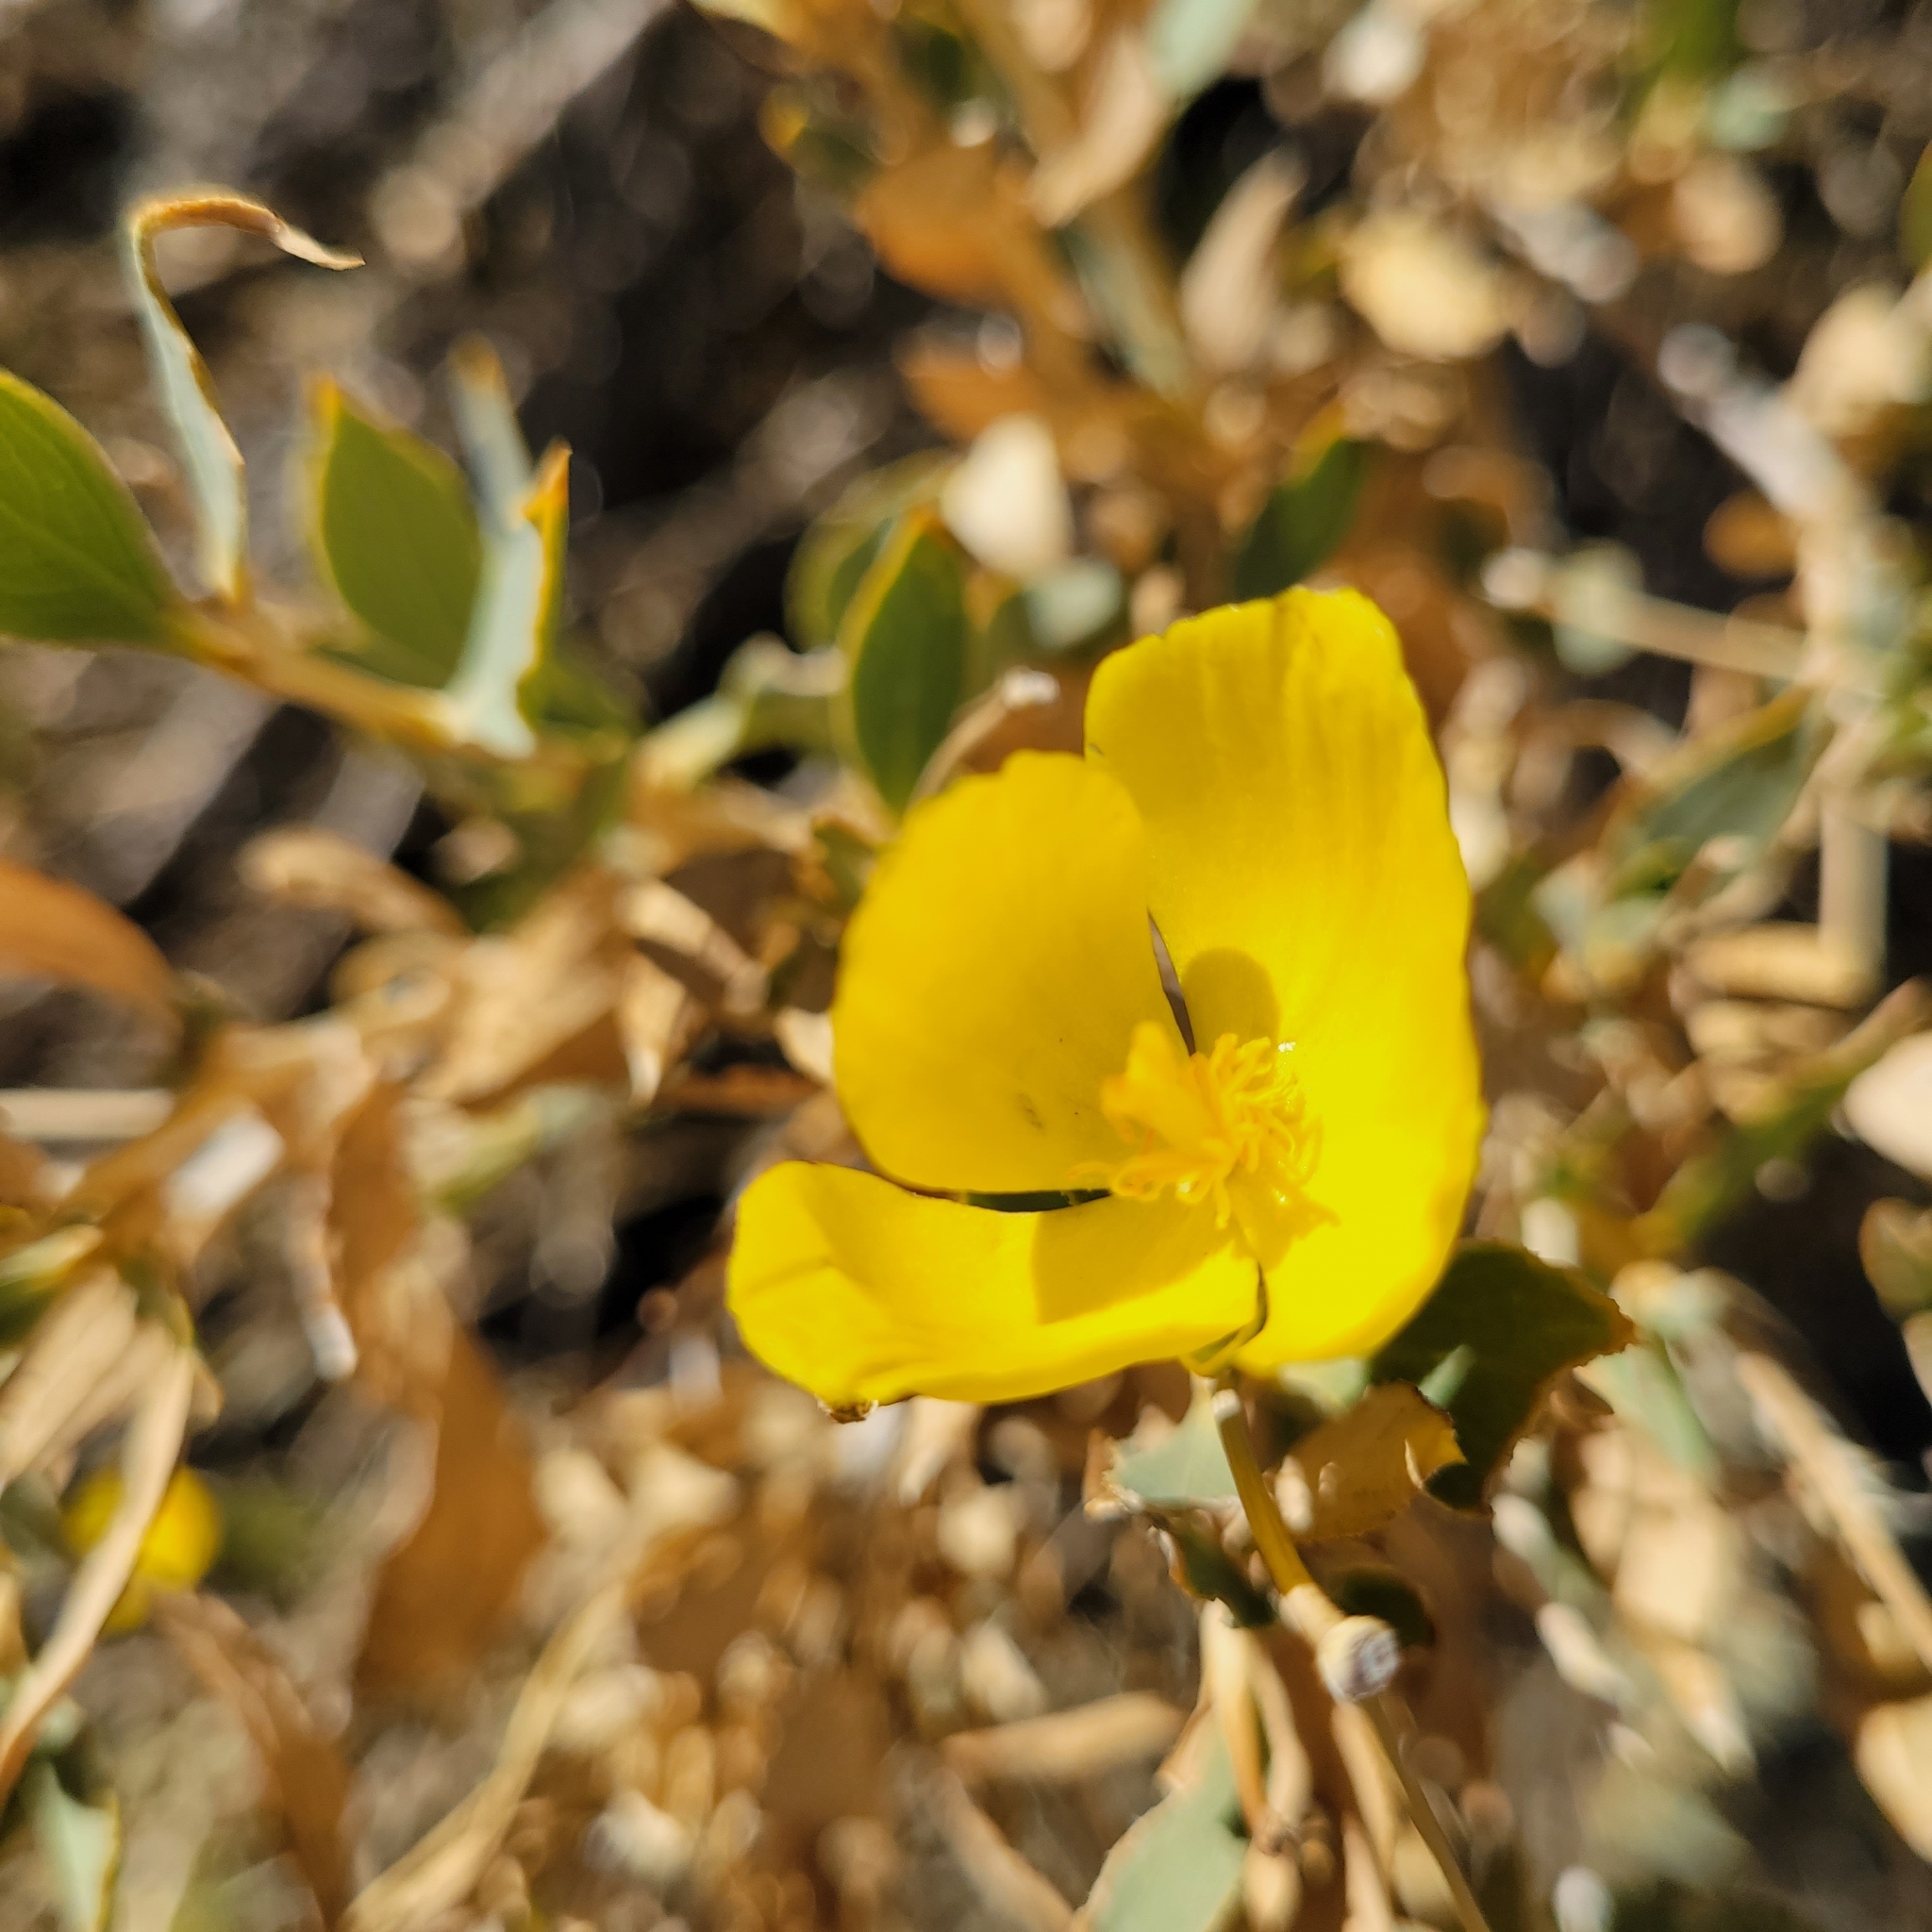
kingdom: Plantae
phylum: Tracheophyta
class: Magnoliopsida
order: Ranunculales
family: Papaveraceae
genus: Dendromecon
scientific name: Dendromecon rigida
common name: Tree poppy
